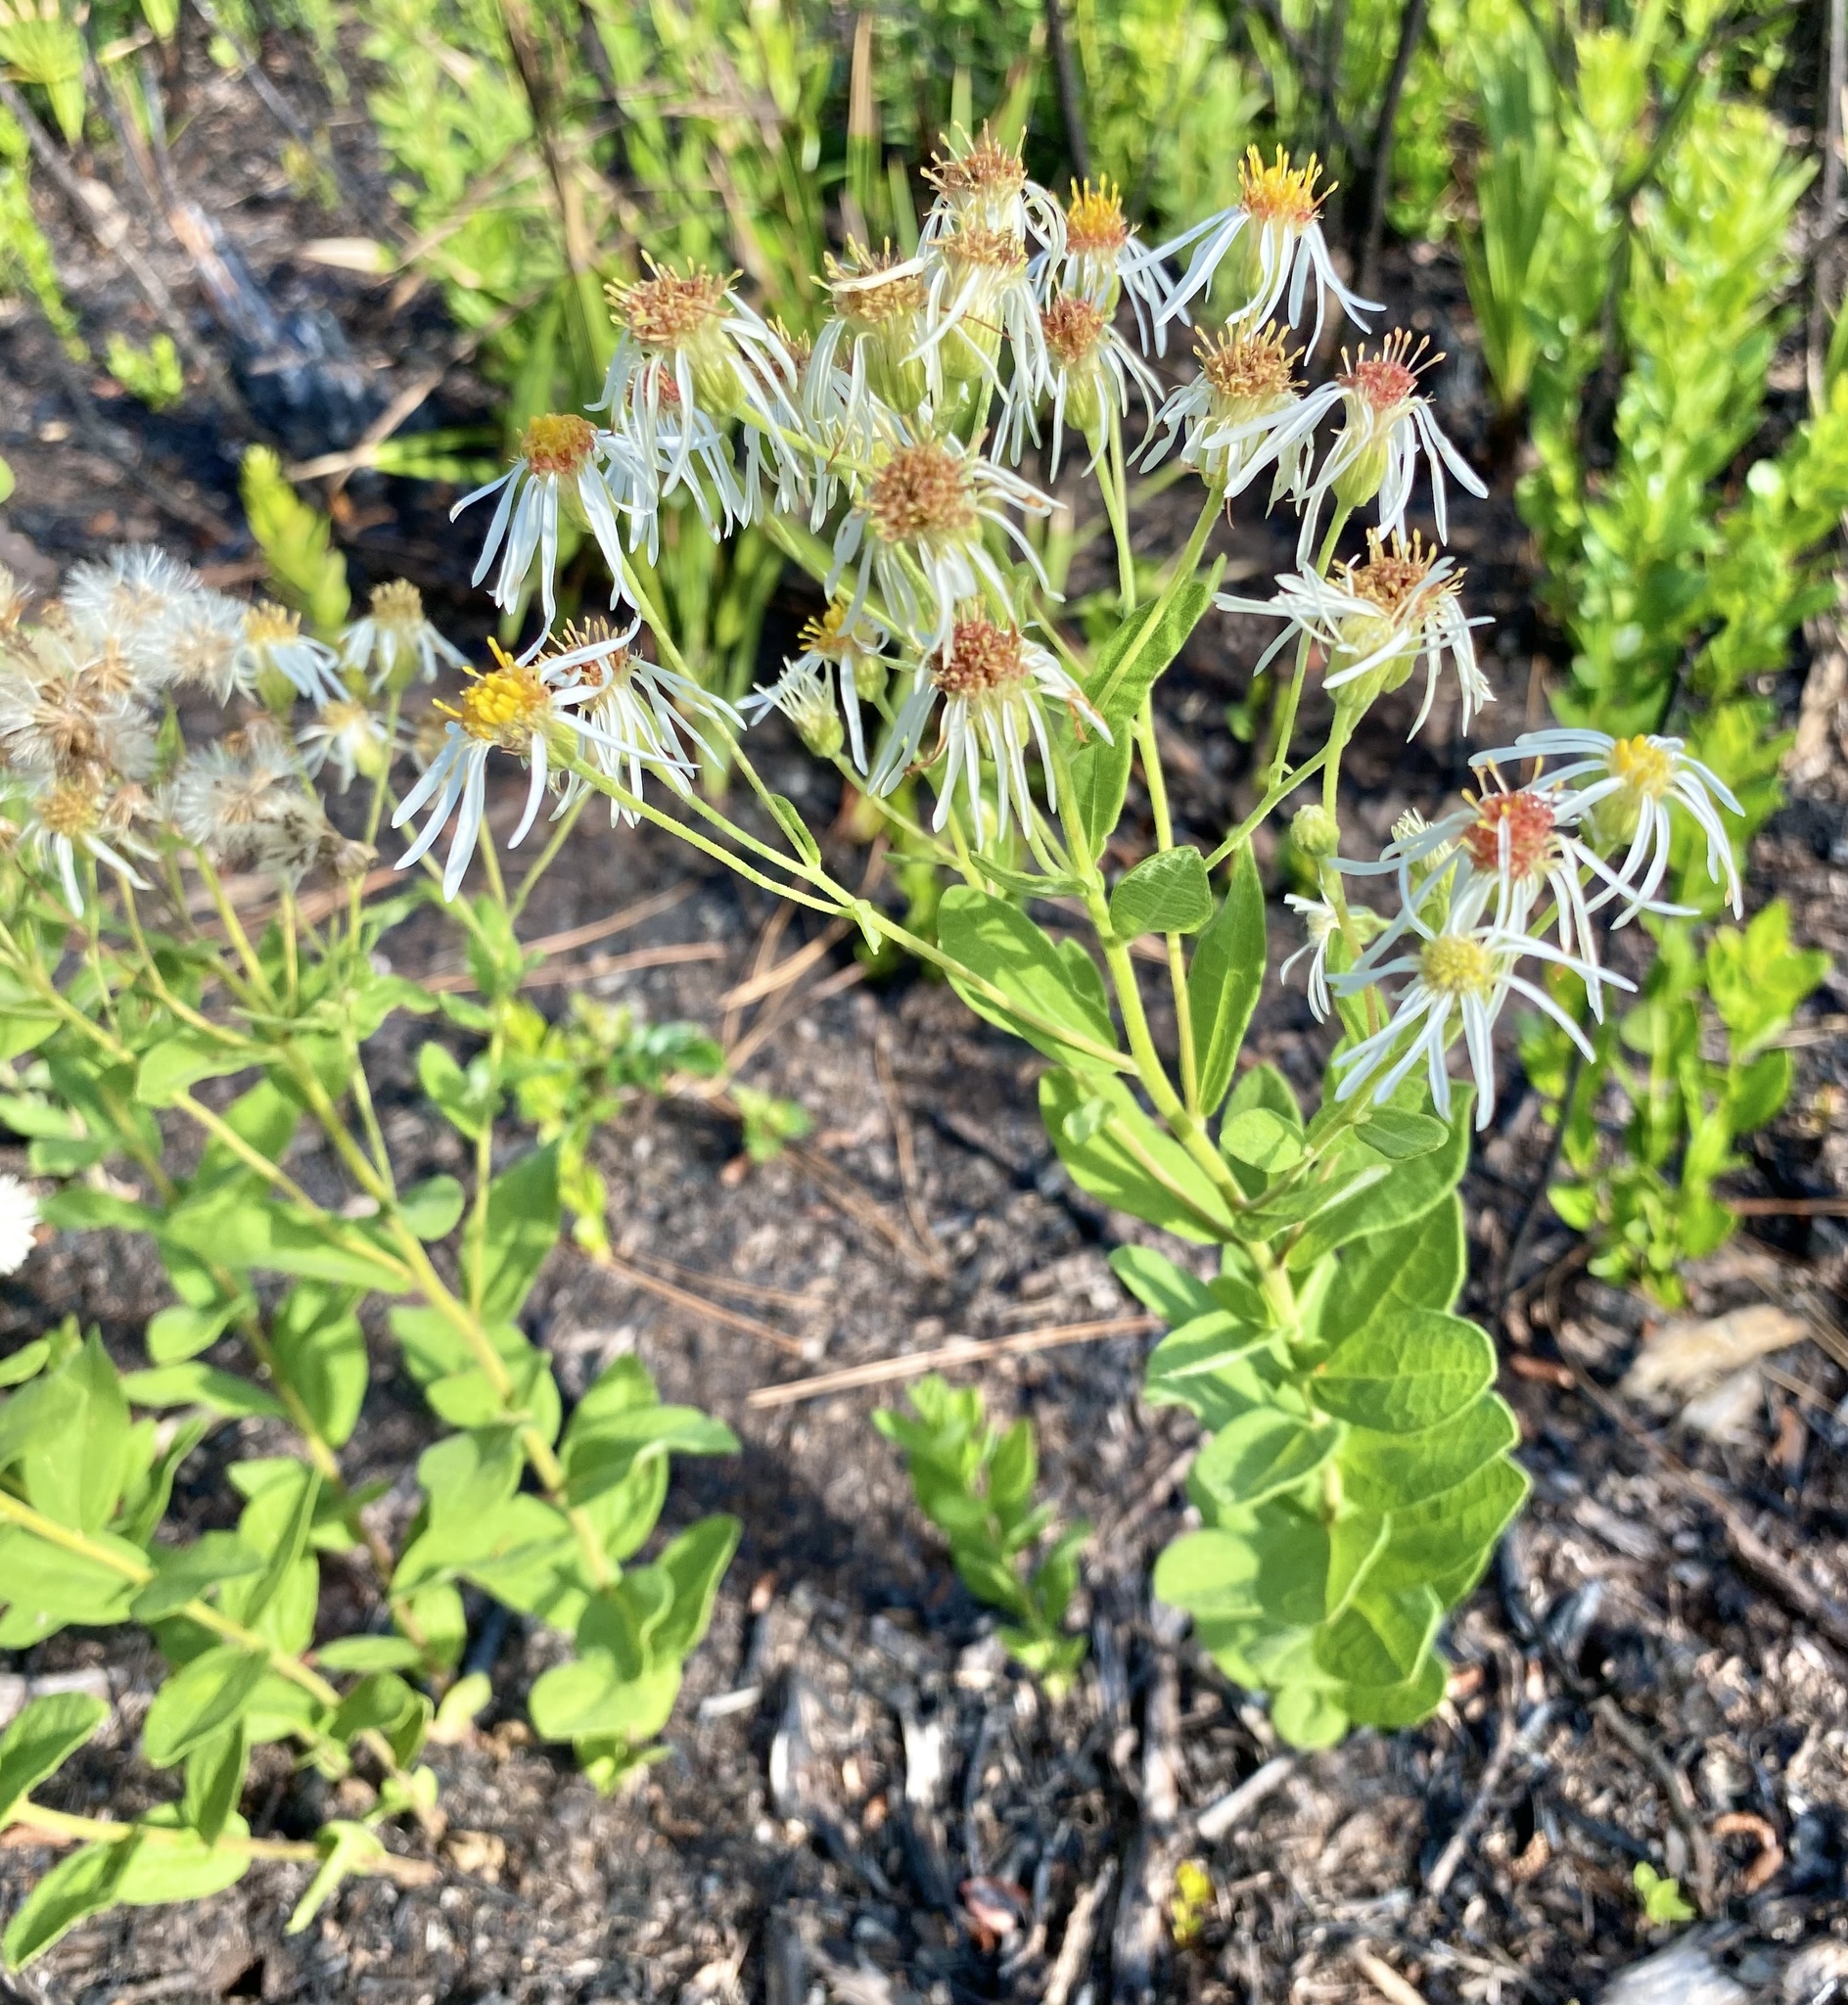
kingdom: Plantae
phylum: Tracheophyta
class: Magnoliopsida
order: Asterales
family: Asteraceae
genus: Oclemena
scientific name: Oclemena reticulata
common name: Pinebarren aster
